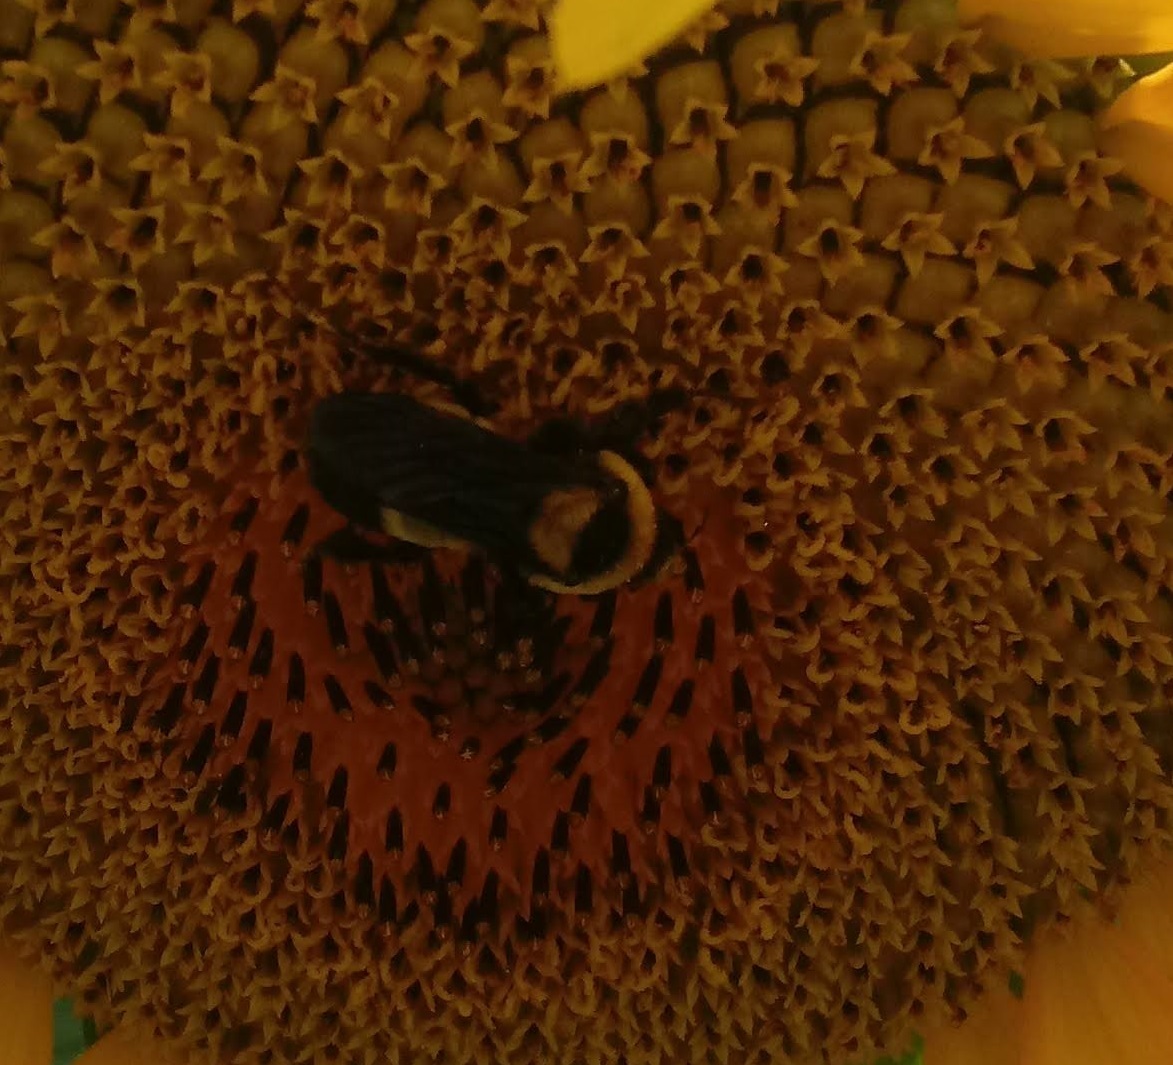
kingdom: Animalia
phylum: Arthropoda
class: Insecta
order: Hymenoptera
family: Apidae
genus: Bombus
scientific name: Bombus fraternus
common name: Southern plains bumble bee
